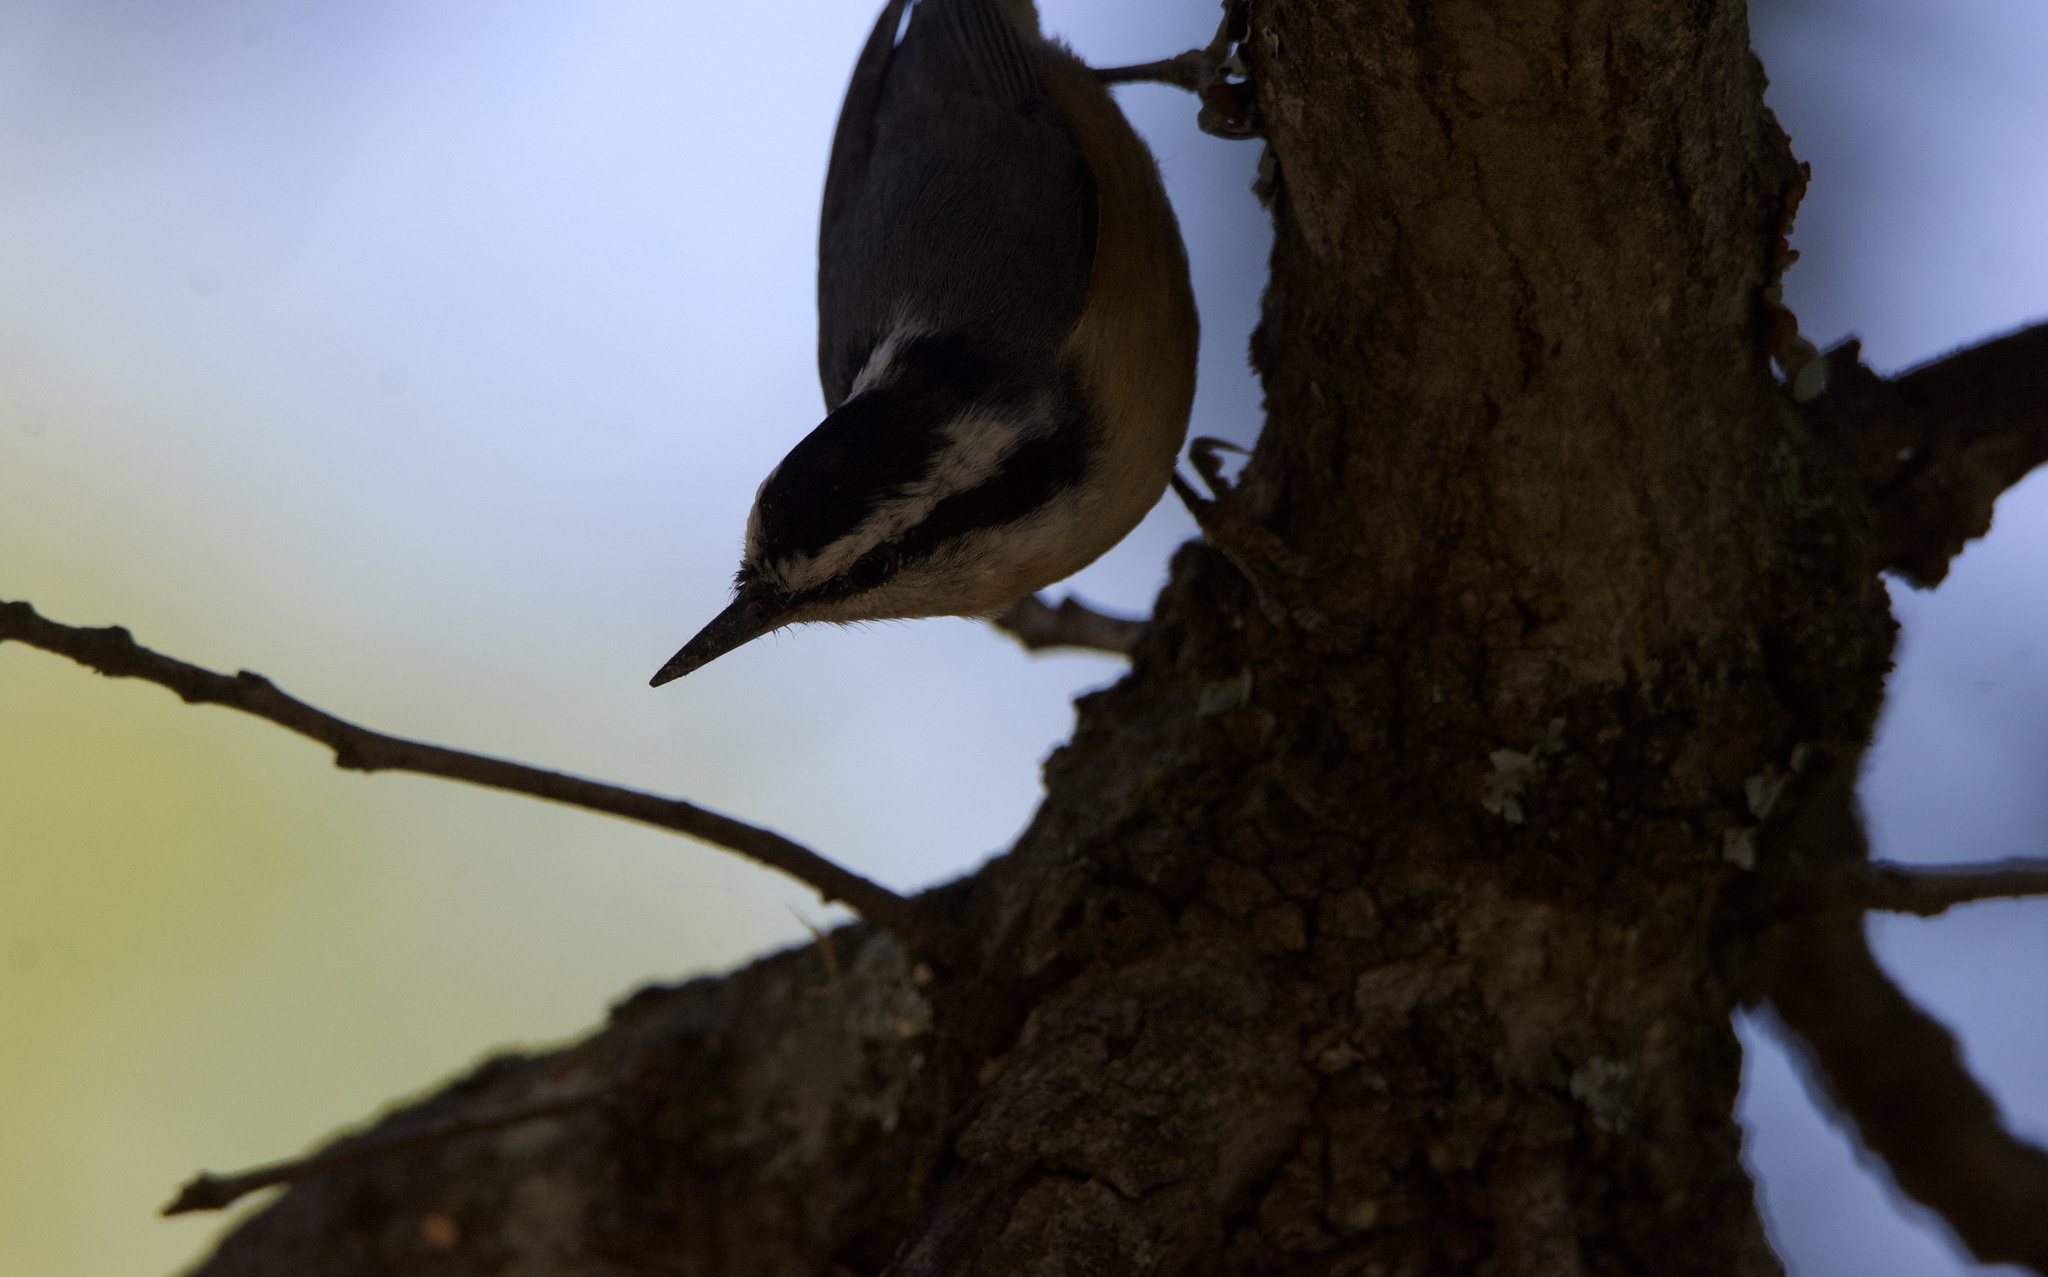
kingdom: Animalia
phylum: Chordata
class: Aves
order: Passeriformes
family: Sittidae
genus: Sitta
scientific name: Sitta canadensis
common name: Red-breasted nuthatch
